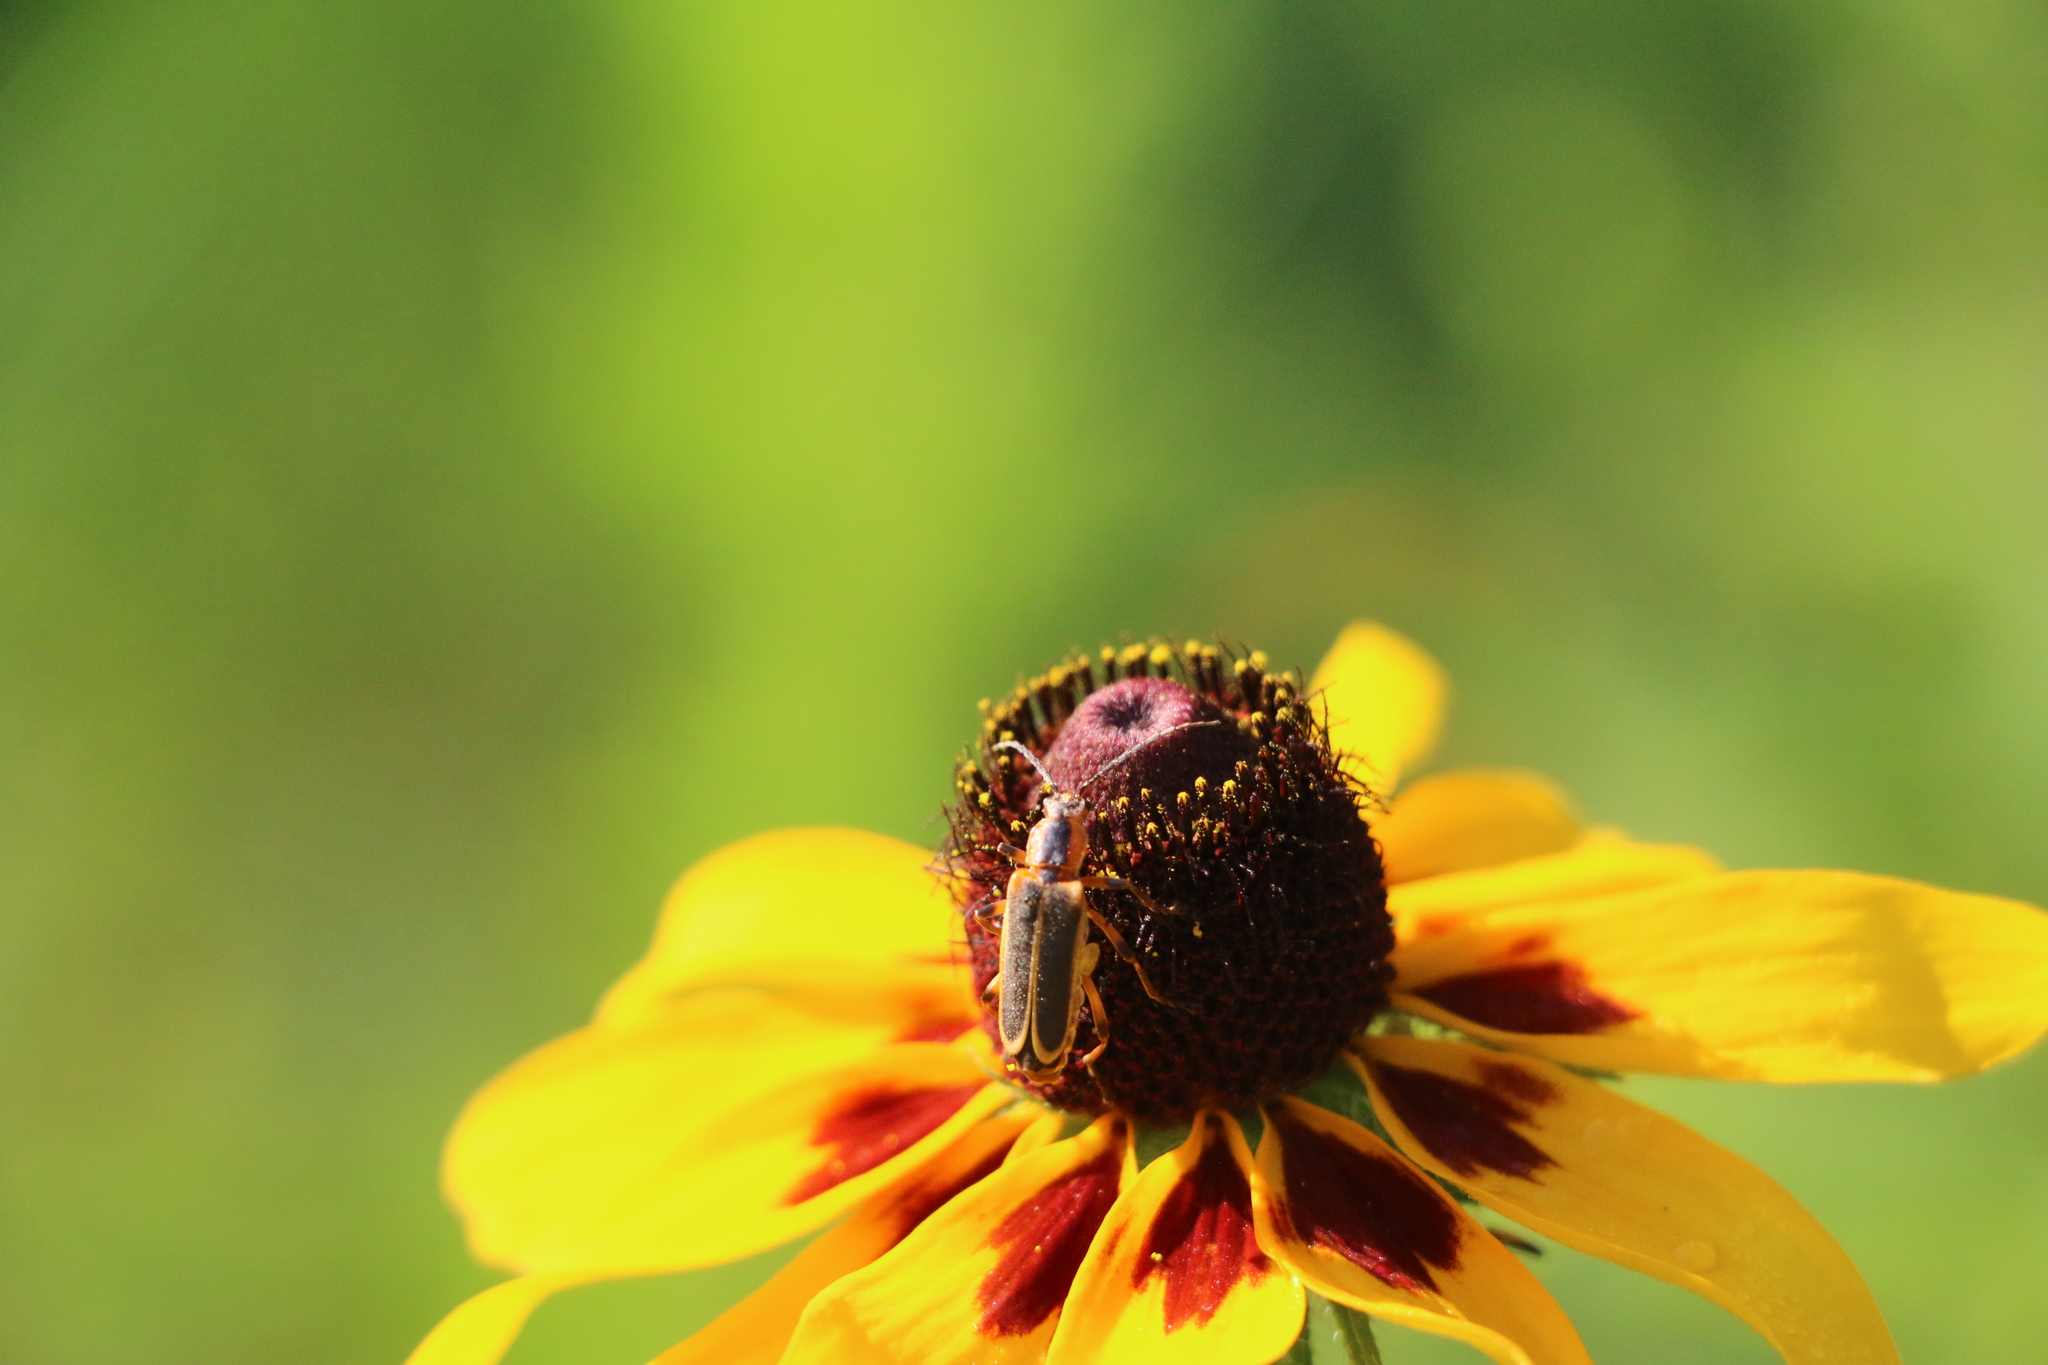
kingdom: Animalia
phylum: Arthropoda
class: Insecta
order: Coleoptera
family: Cantharidae
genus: Chauliognathus
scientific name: Chauliognathus marginatus
